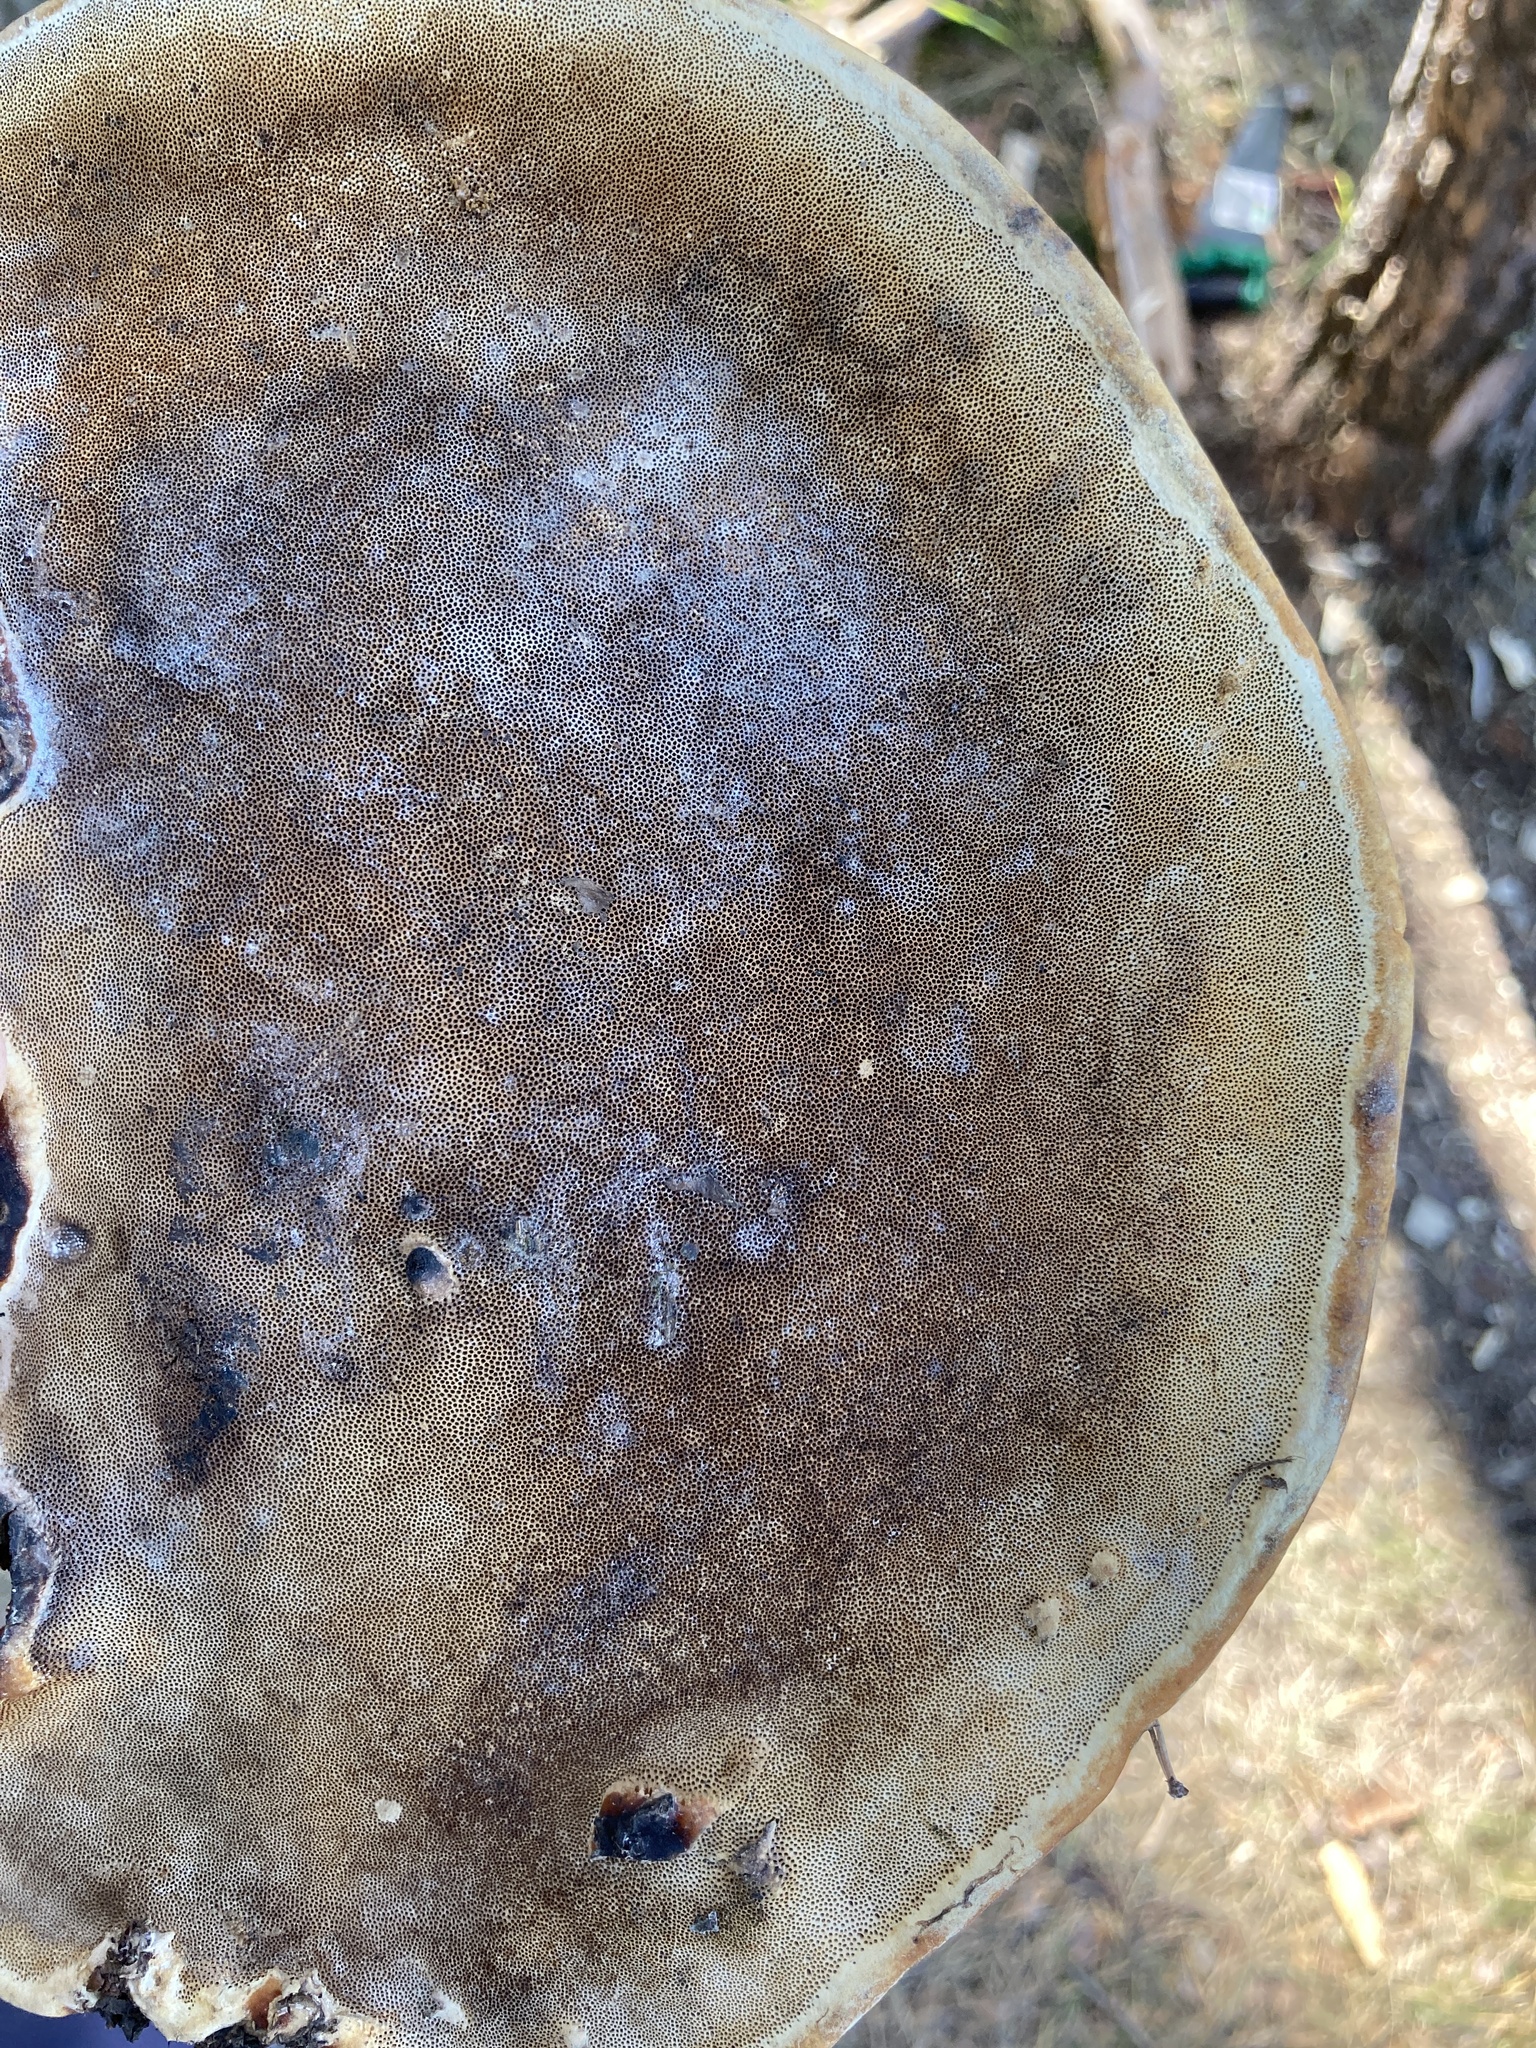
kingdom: Fungi
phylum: Basidiomycota
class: Agaricomycetes
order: Polyporales
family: Fomitopsidaceae
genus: Fomitopsis
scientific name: Fomitopsis pinicola
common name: Red-belted bracket
